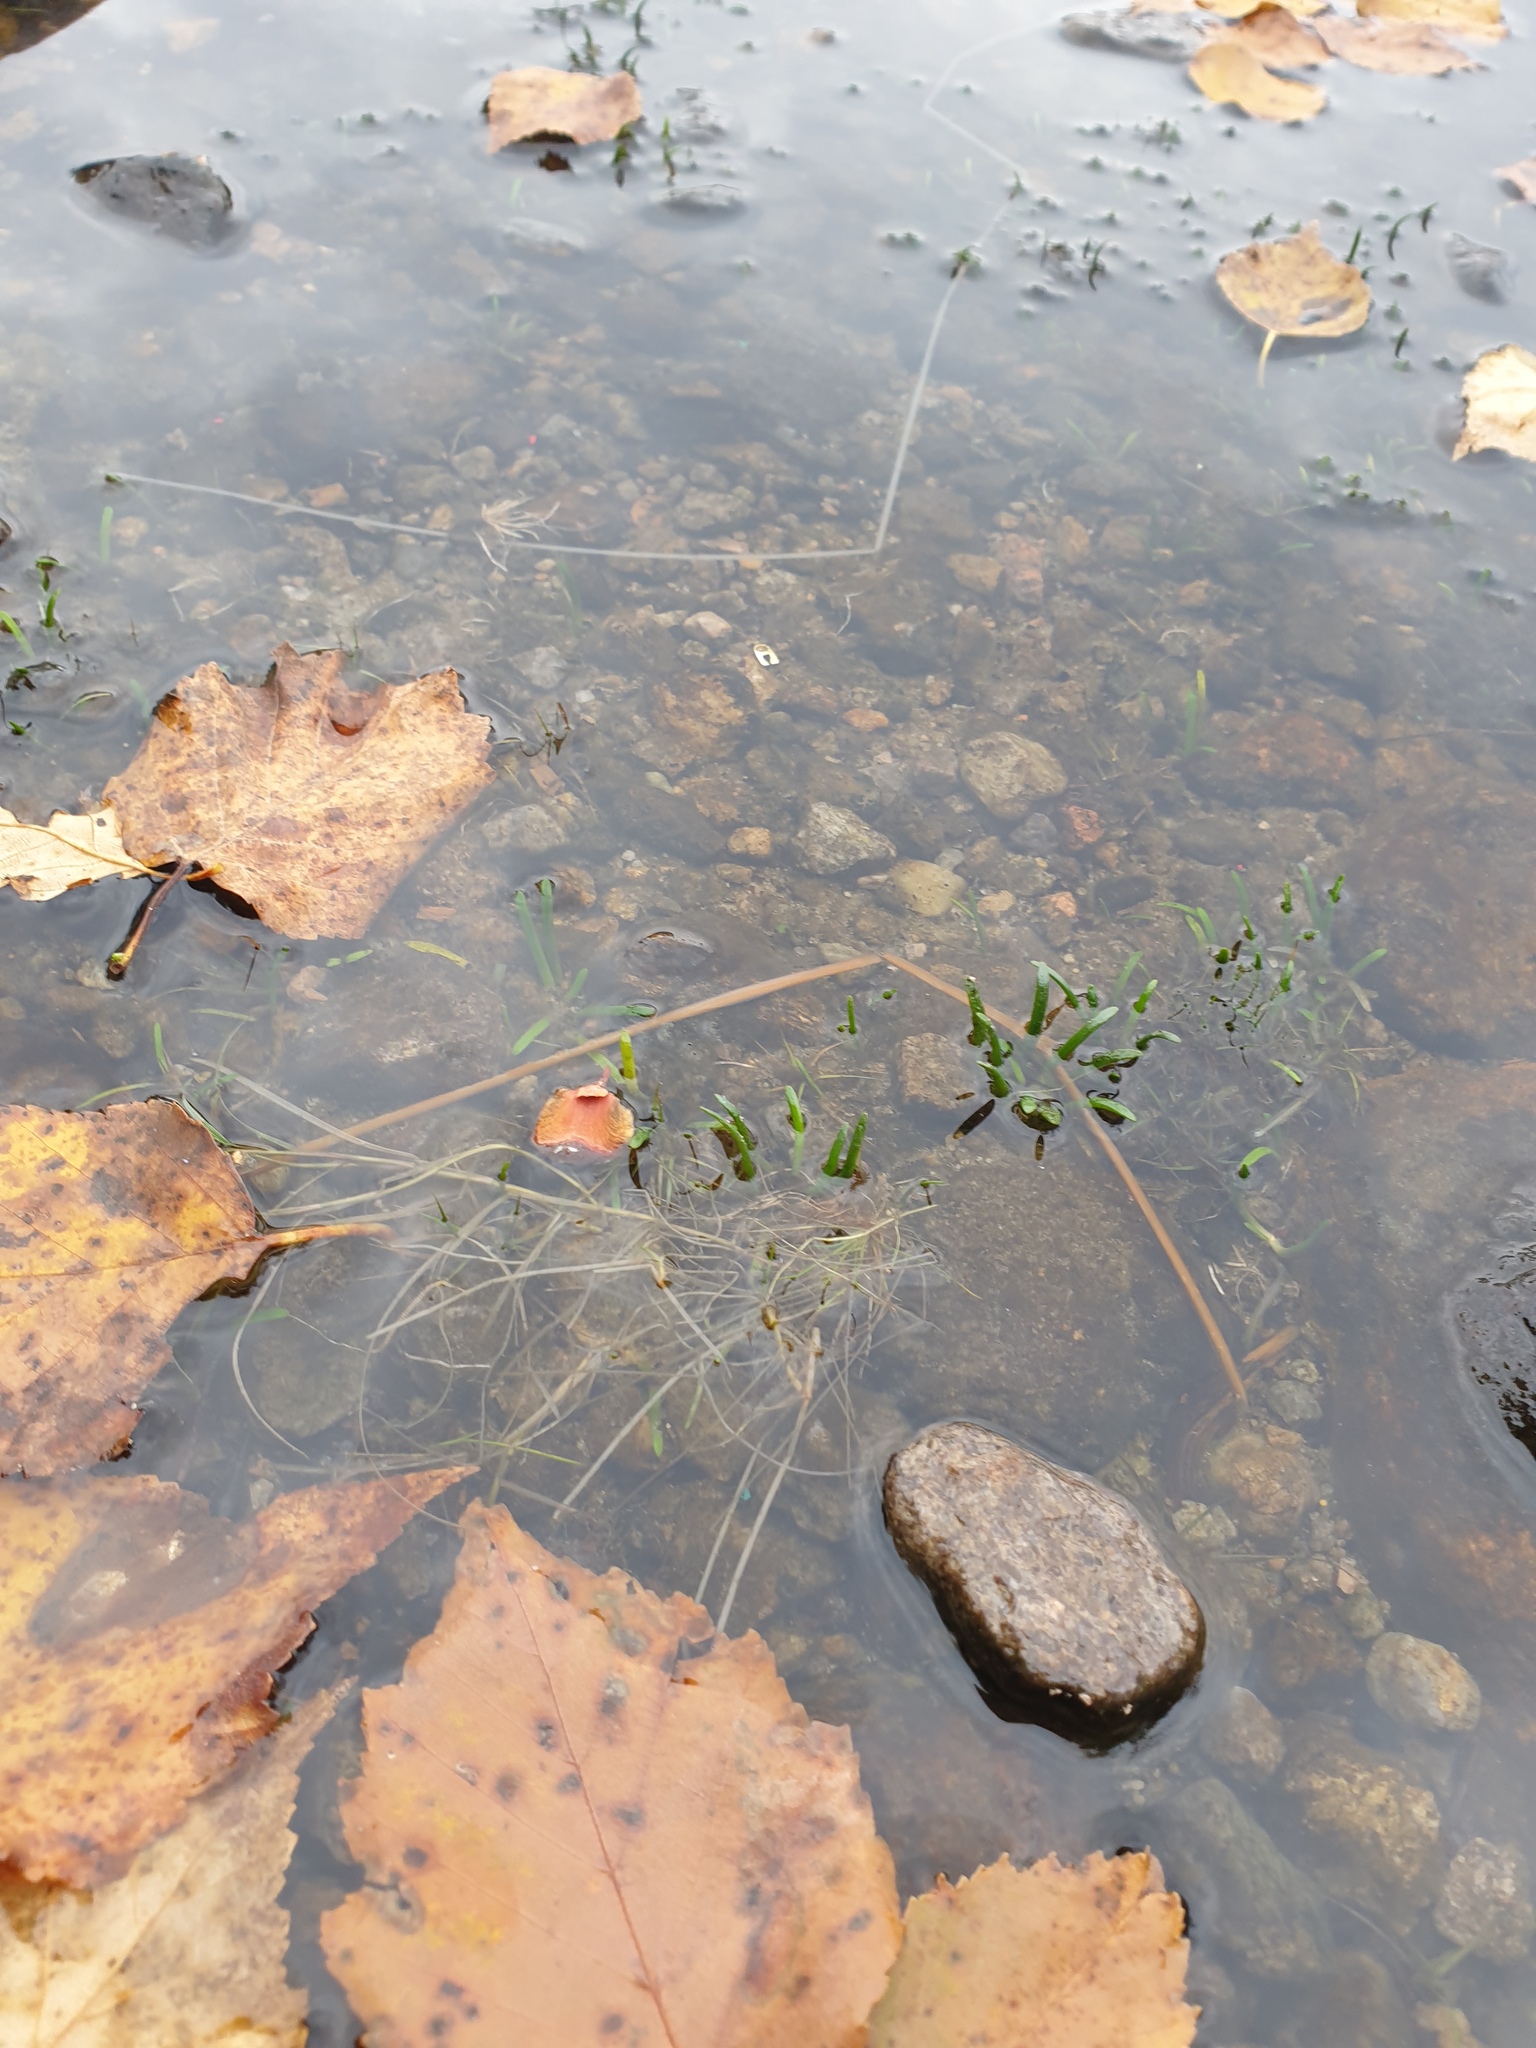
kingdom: Plantae
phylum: Tracheophyta
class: Magnoliopsida
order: Asterales
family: Campanulaceae
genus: Lobelia
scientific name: Lobelia dortmanna
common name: Water lobelia
